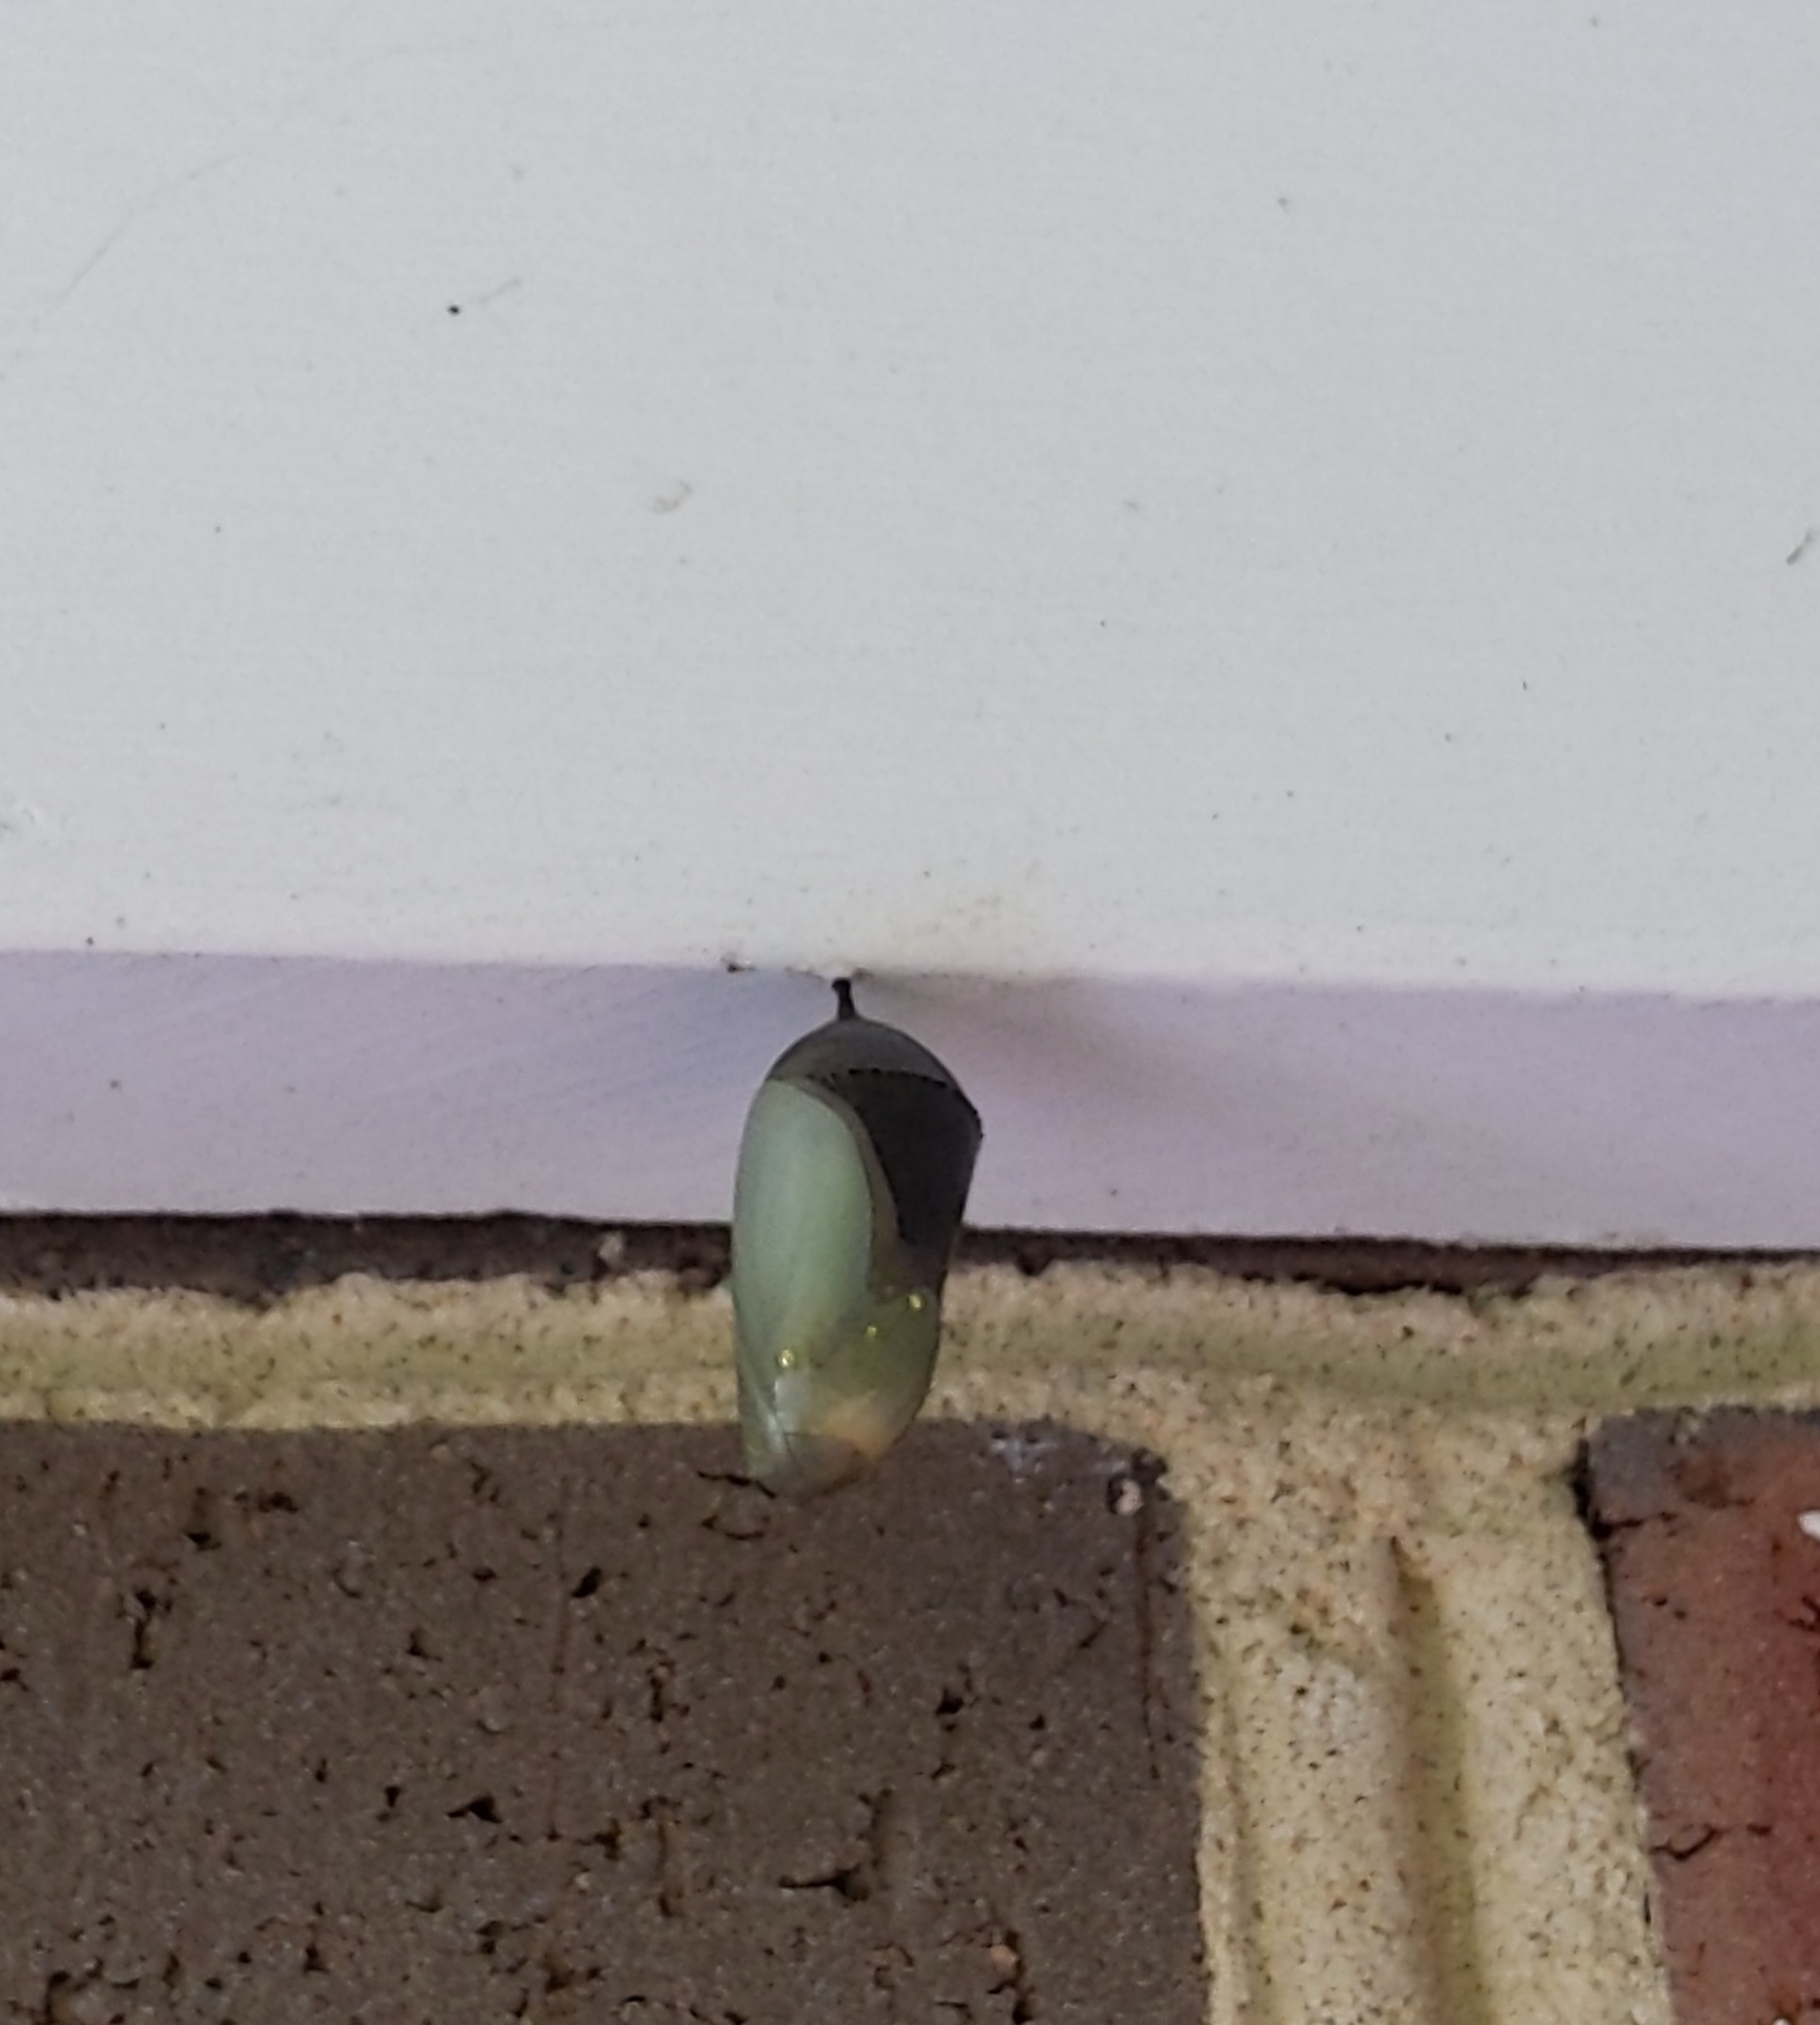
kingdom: Animalia
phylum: Arthropoda
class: Insecta
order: Lepidoptera
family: Nymphalidae
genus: Danaus
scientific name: Danaus plexippus
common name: Monarch
